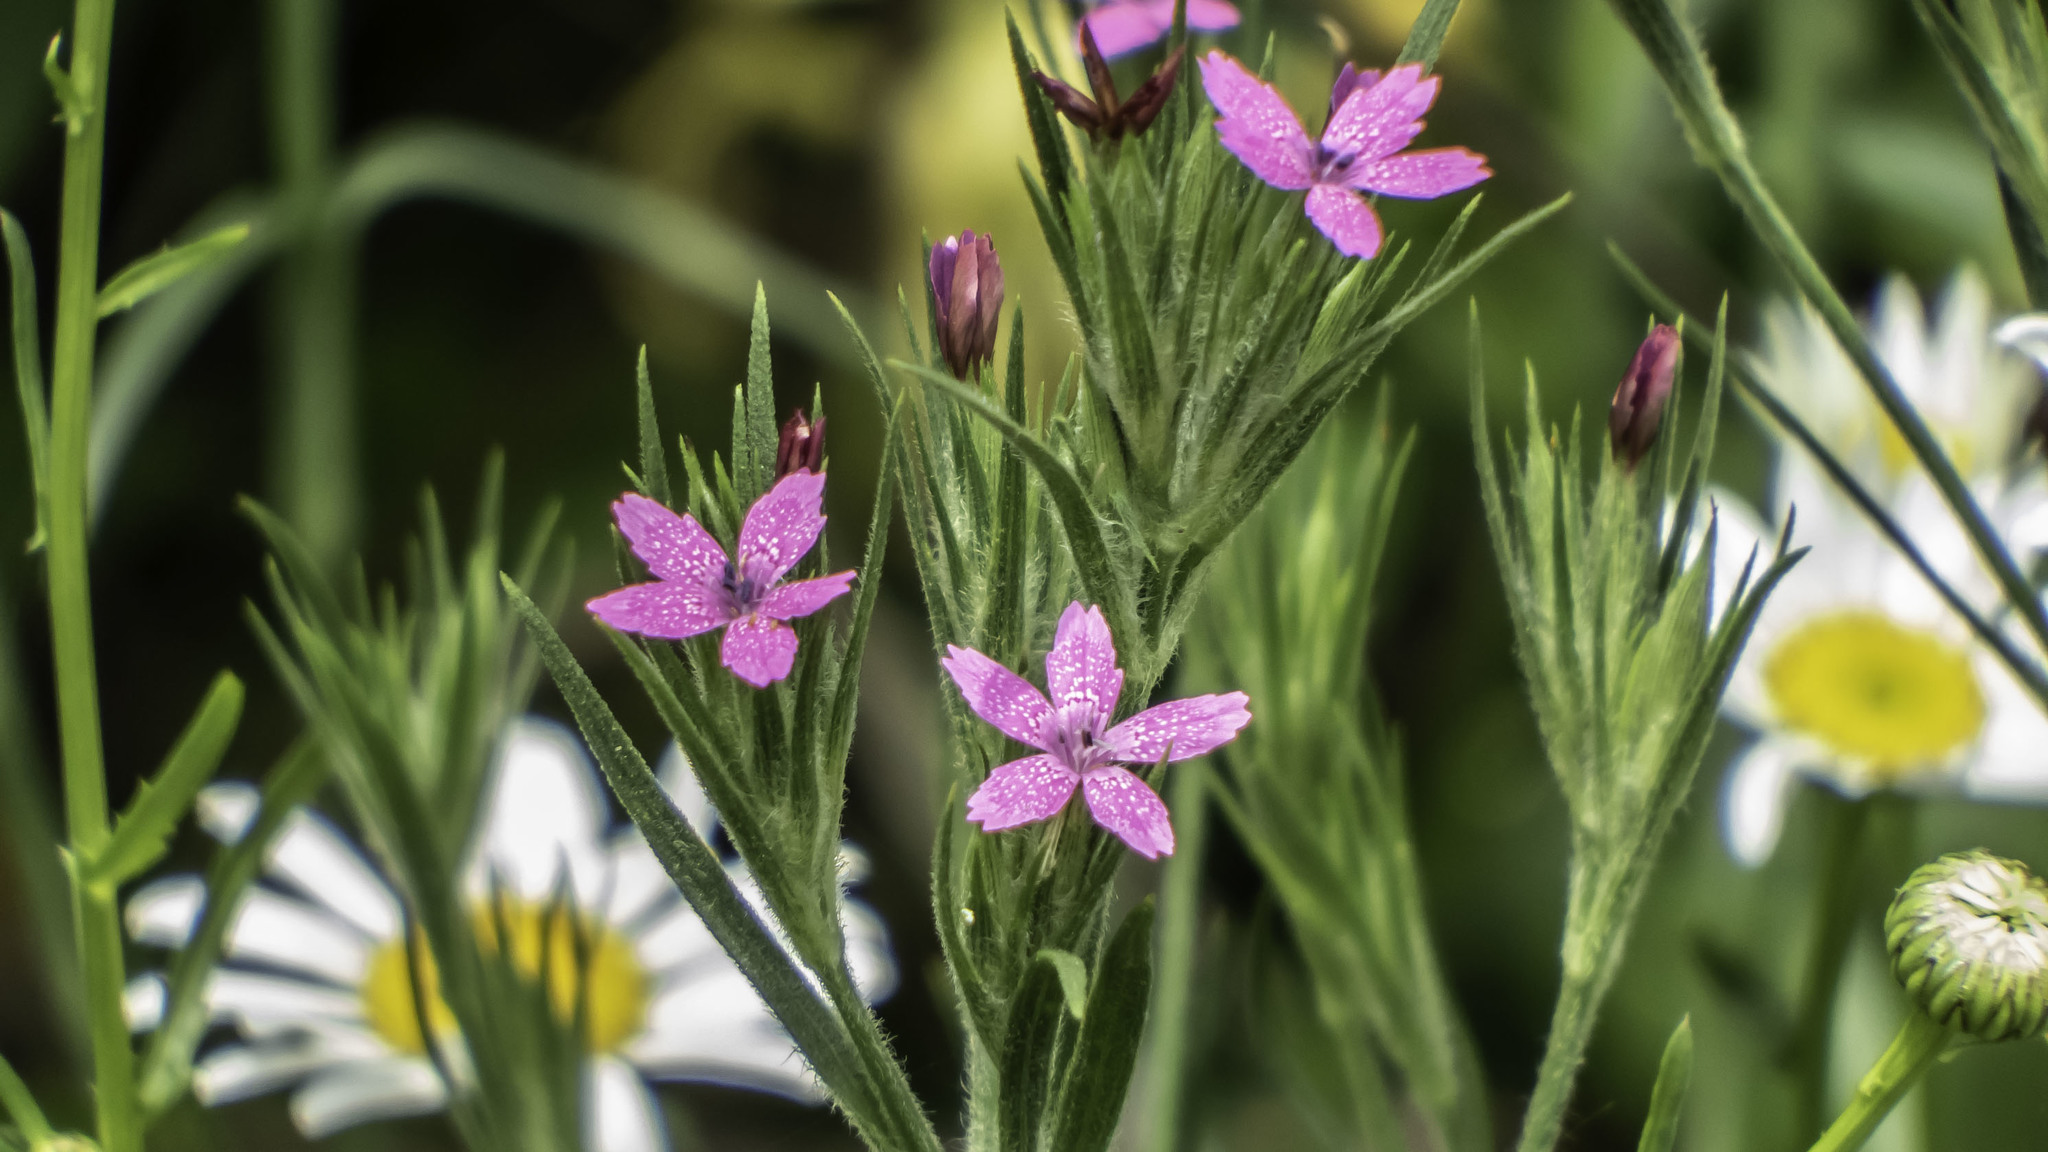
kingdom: Plantae
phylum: Tracheophyta
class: Magnoliopsida
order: Caryophyllales
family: Caryophyllaceae
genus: Dianthus
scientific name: Dianthus armeria
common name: Deptford pink
